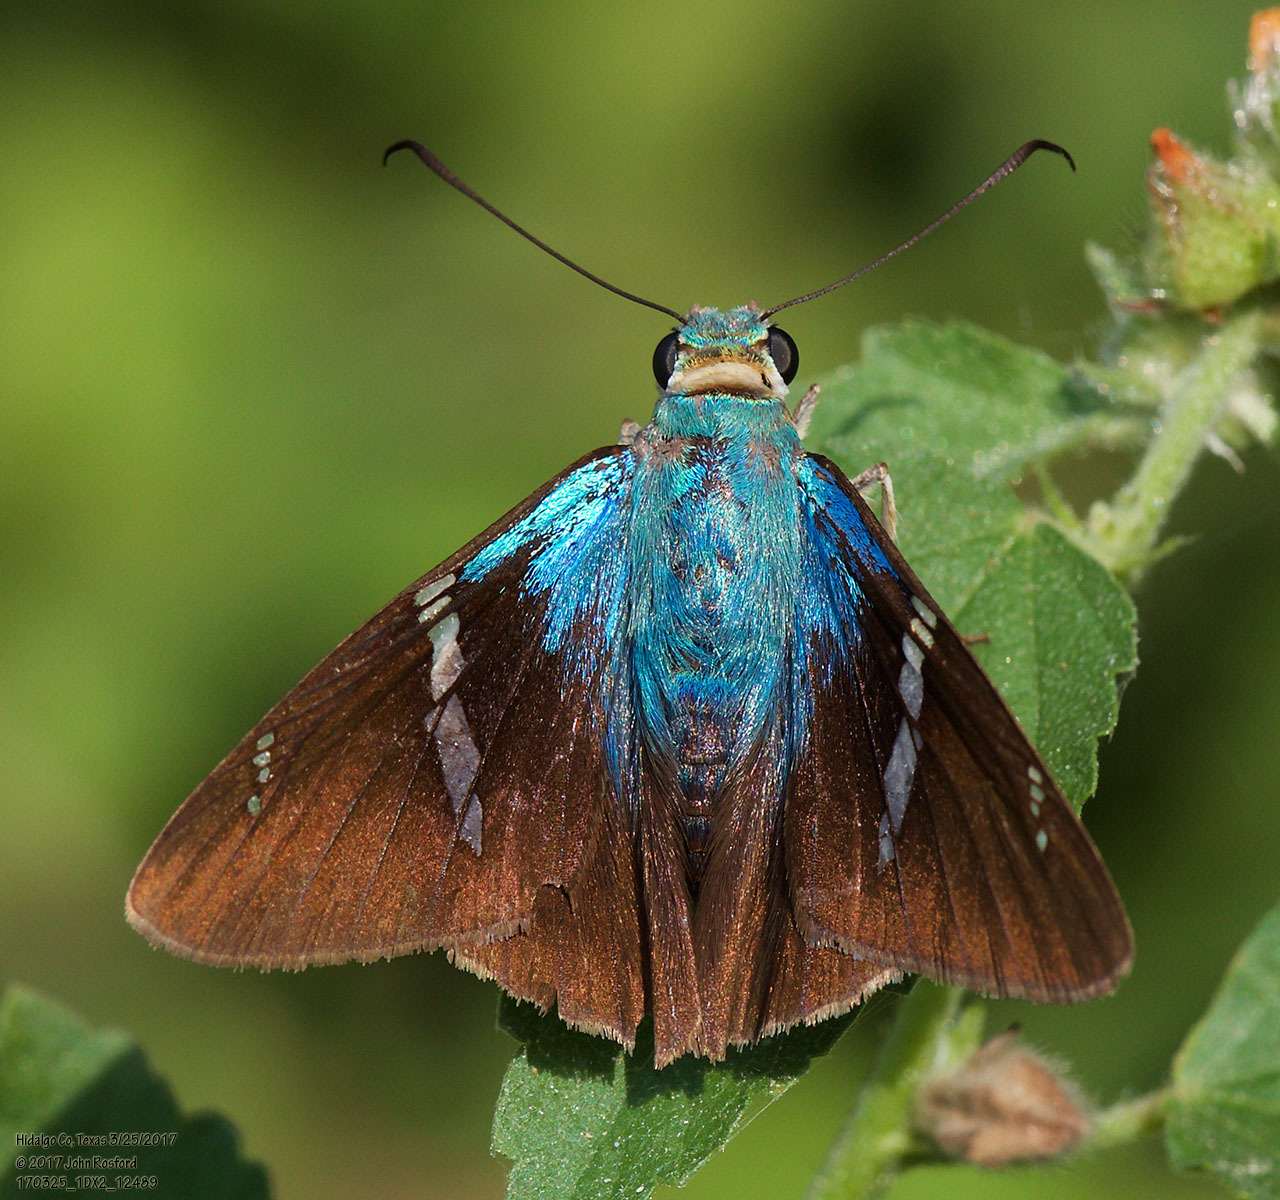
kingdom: Animalia
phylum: Arthropoda
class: Insecta
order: Lepidoptera
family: Hesperiidae
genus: Astraptes
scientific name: Astraptes fulgerator
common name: Two-barred flasher
